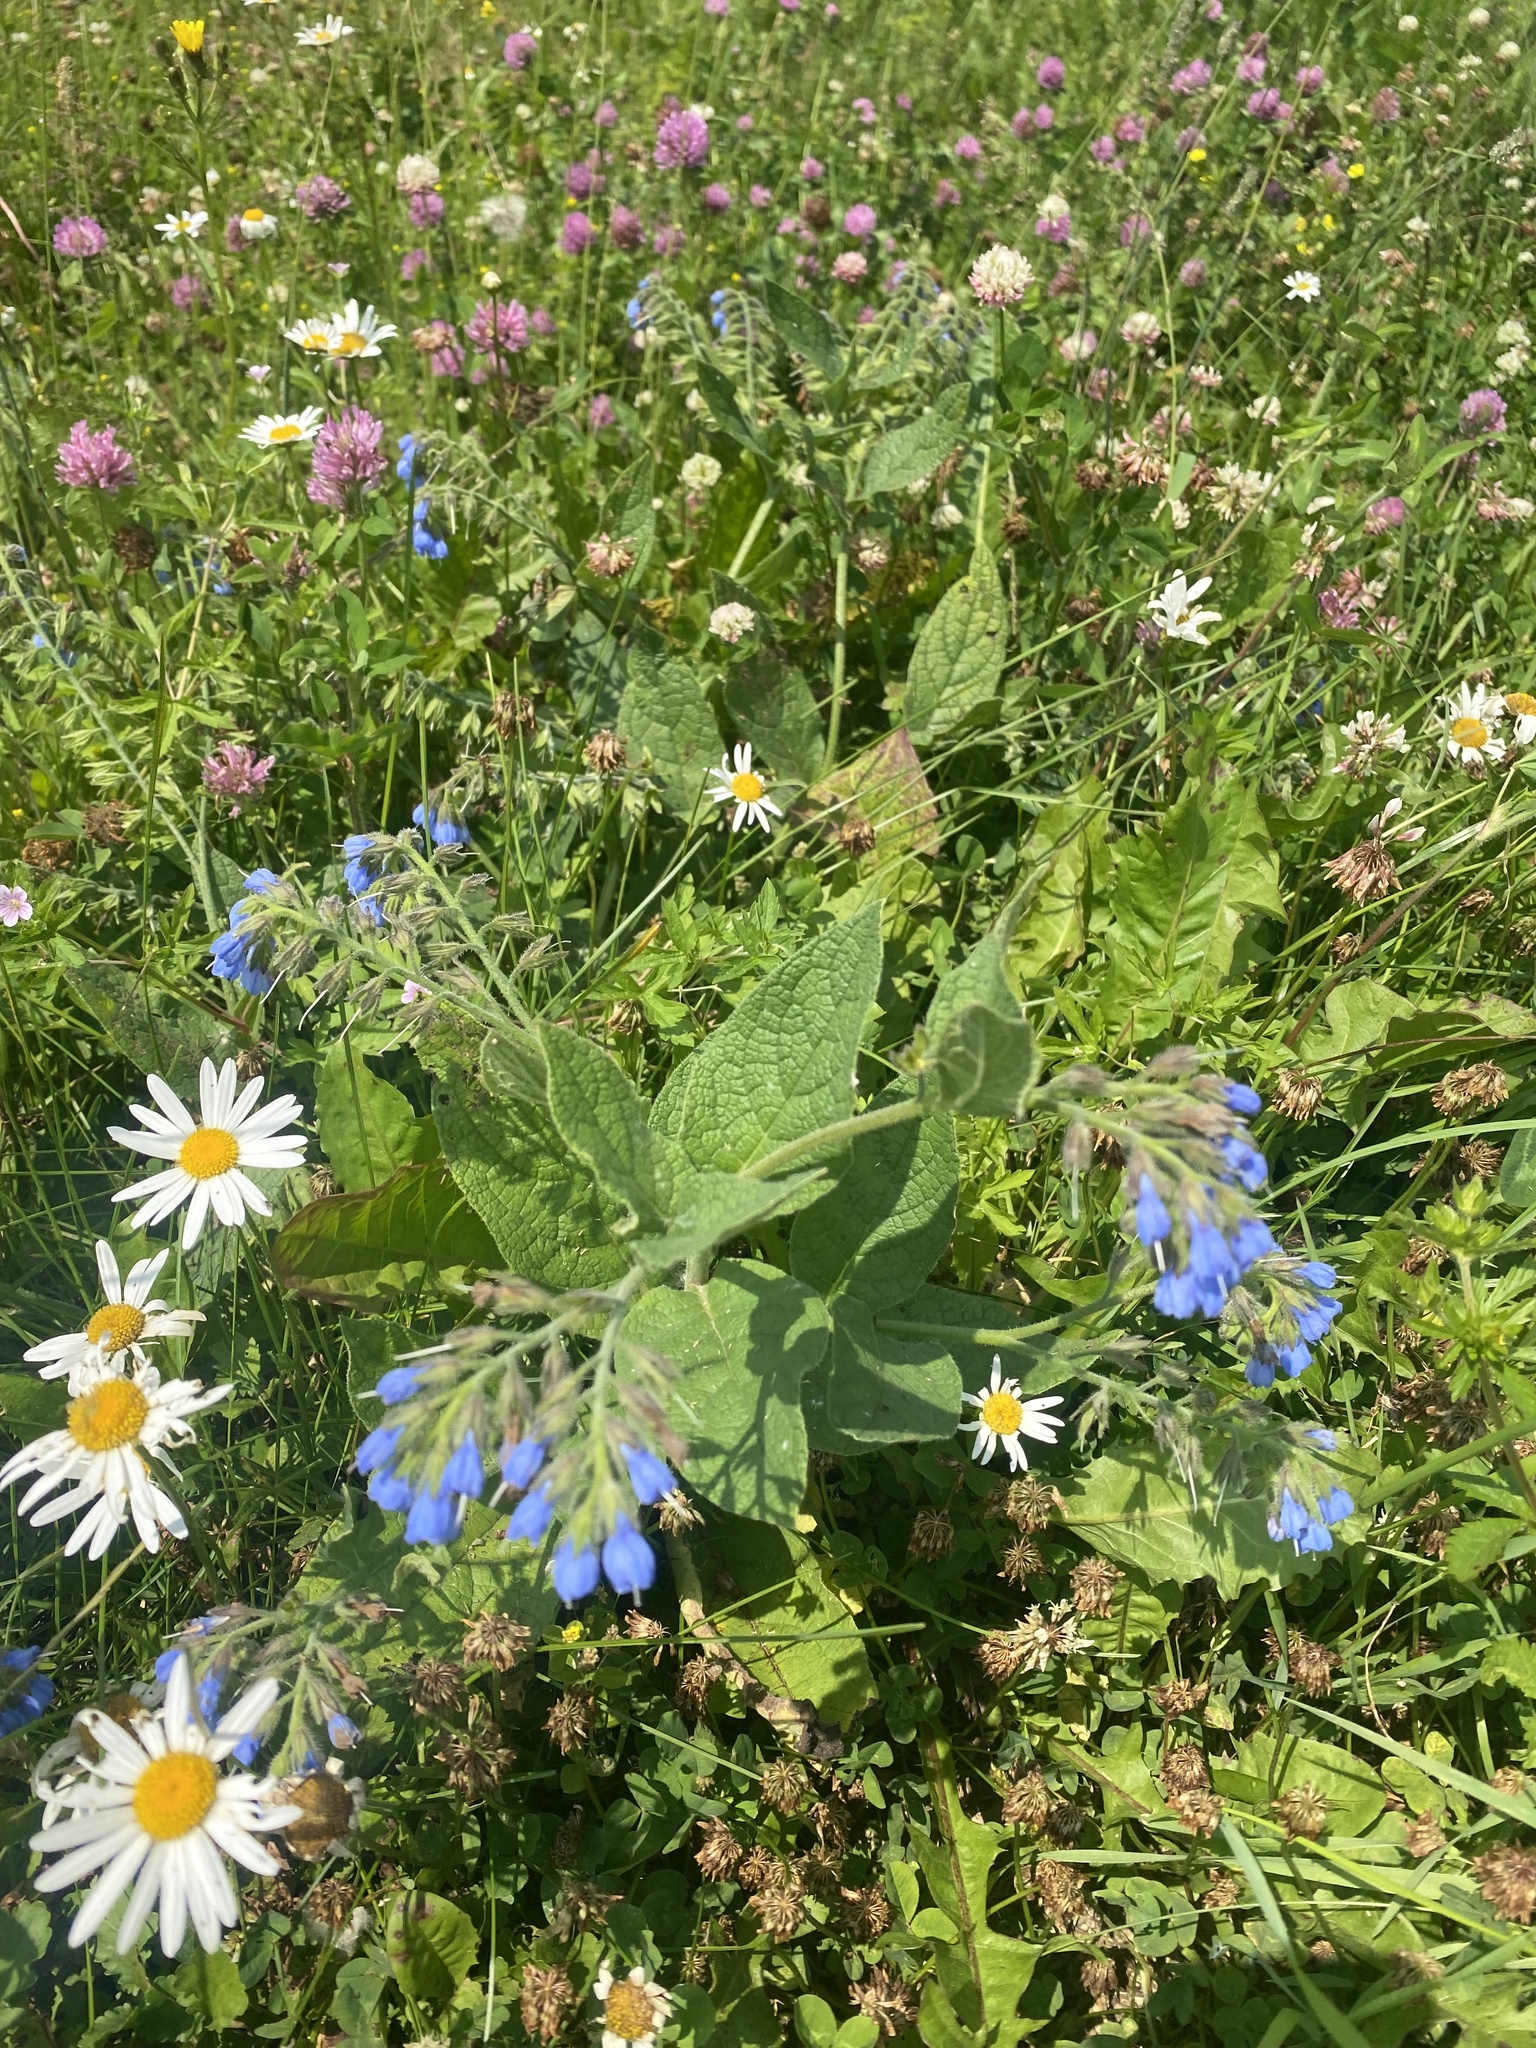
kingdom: Plantae
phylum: Tracheophyta
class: Magnoliopsida
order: Boraginales
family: Boraginaceae
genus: Symphytum
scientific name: Symphytum caucasicum
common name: Caucasian comfrey
